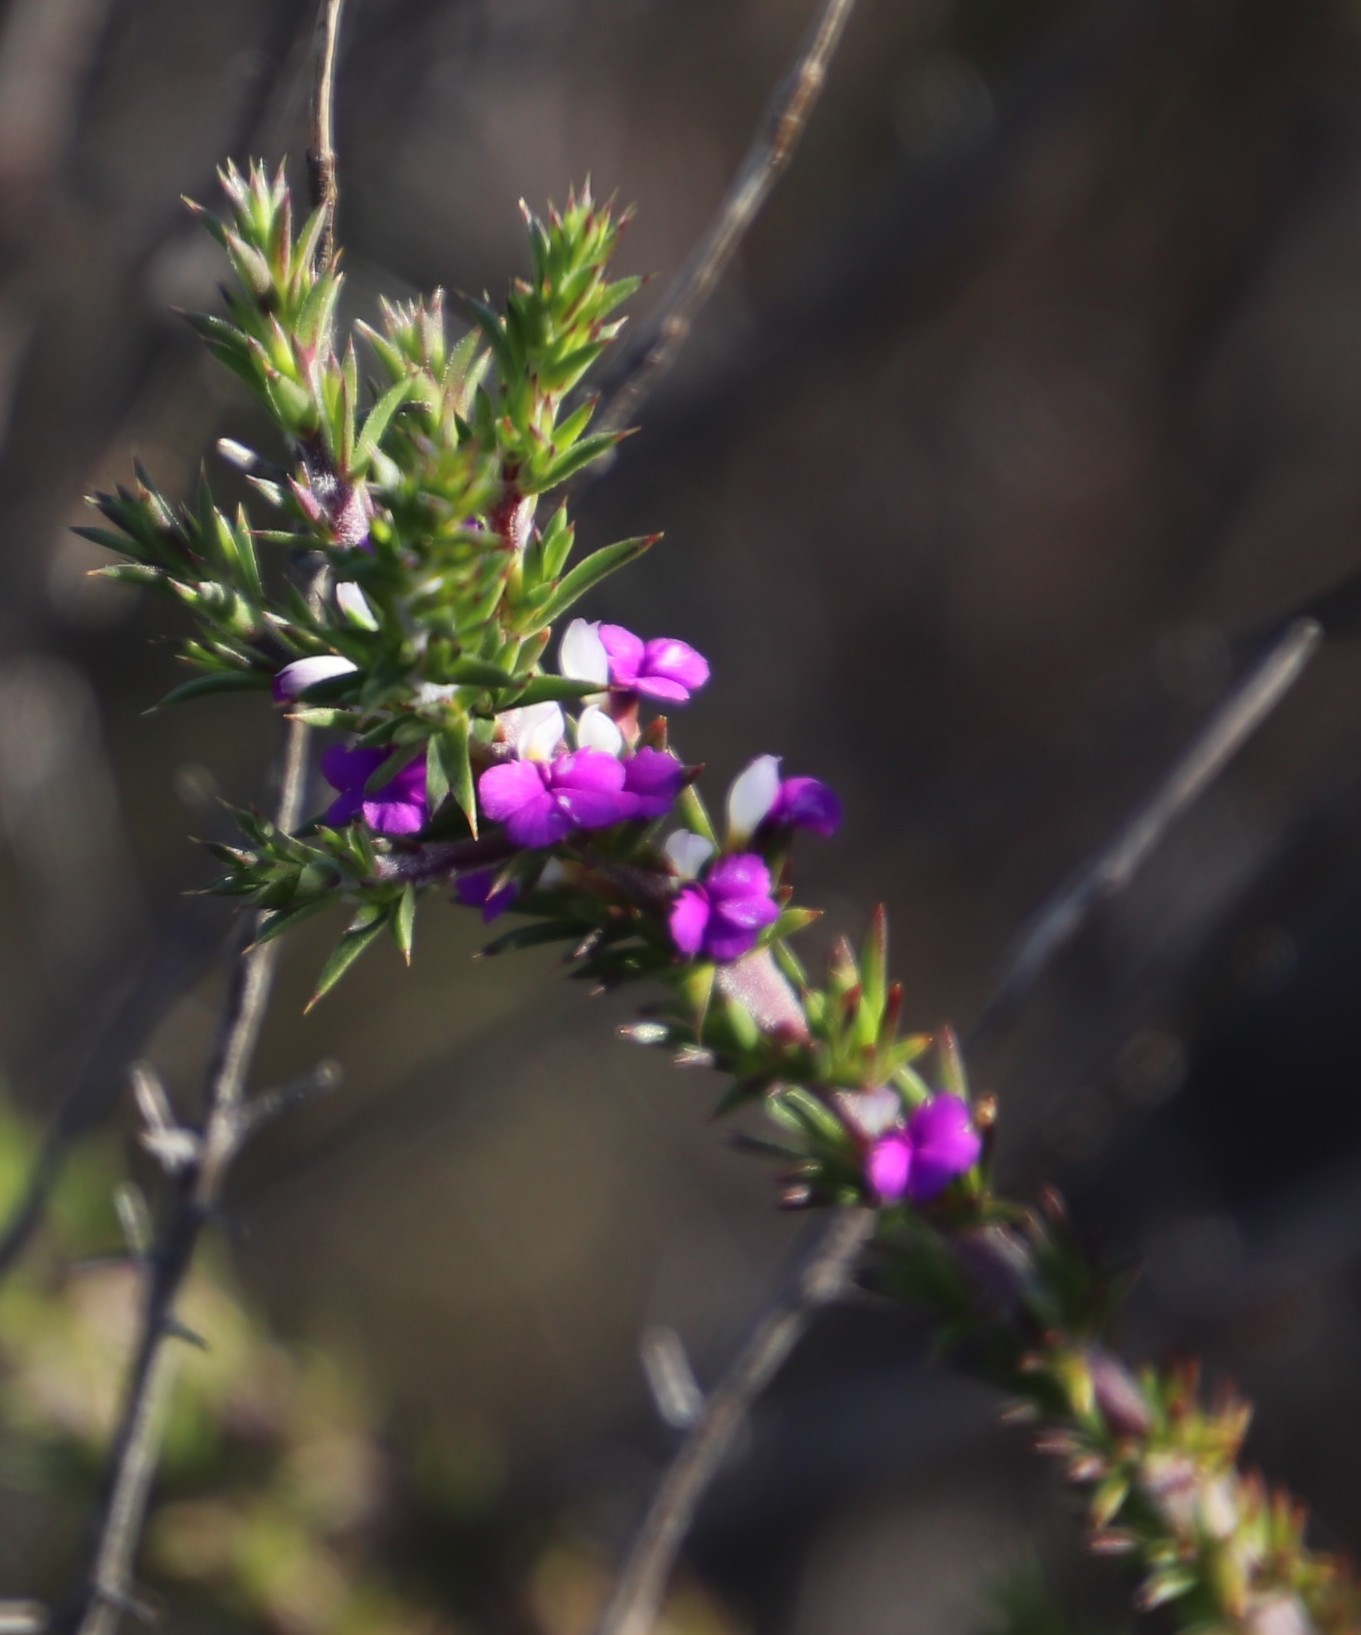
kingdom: Plantae
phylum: Tracheophyta
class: Magnoliopsida
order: Fabales
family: Polygalaceae
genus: Muraltia
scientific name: Muraltia heisteria
